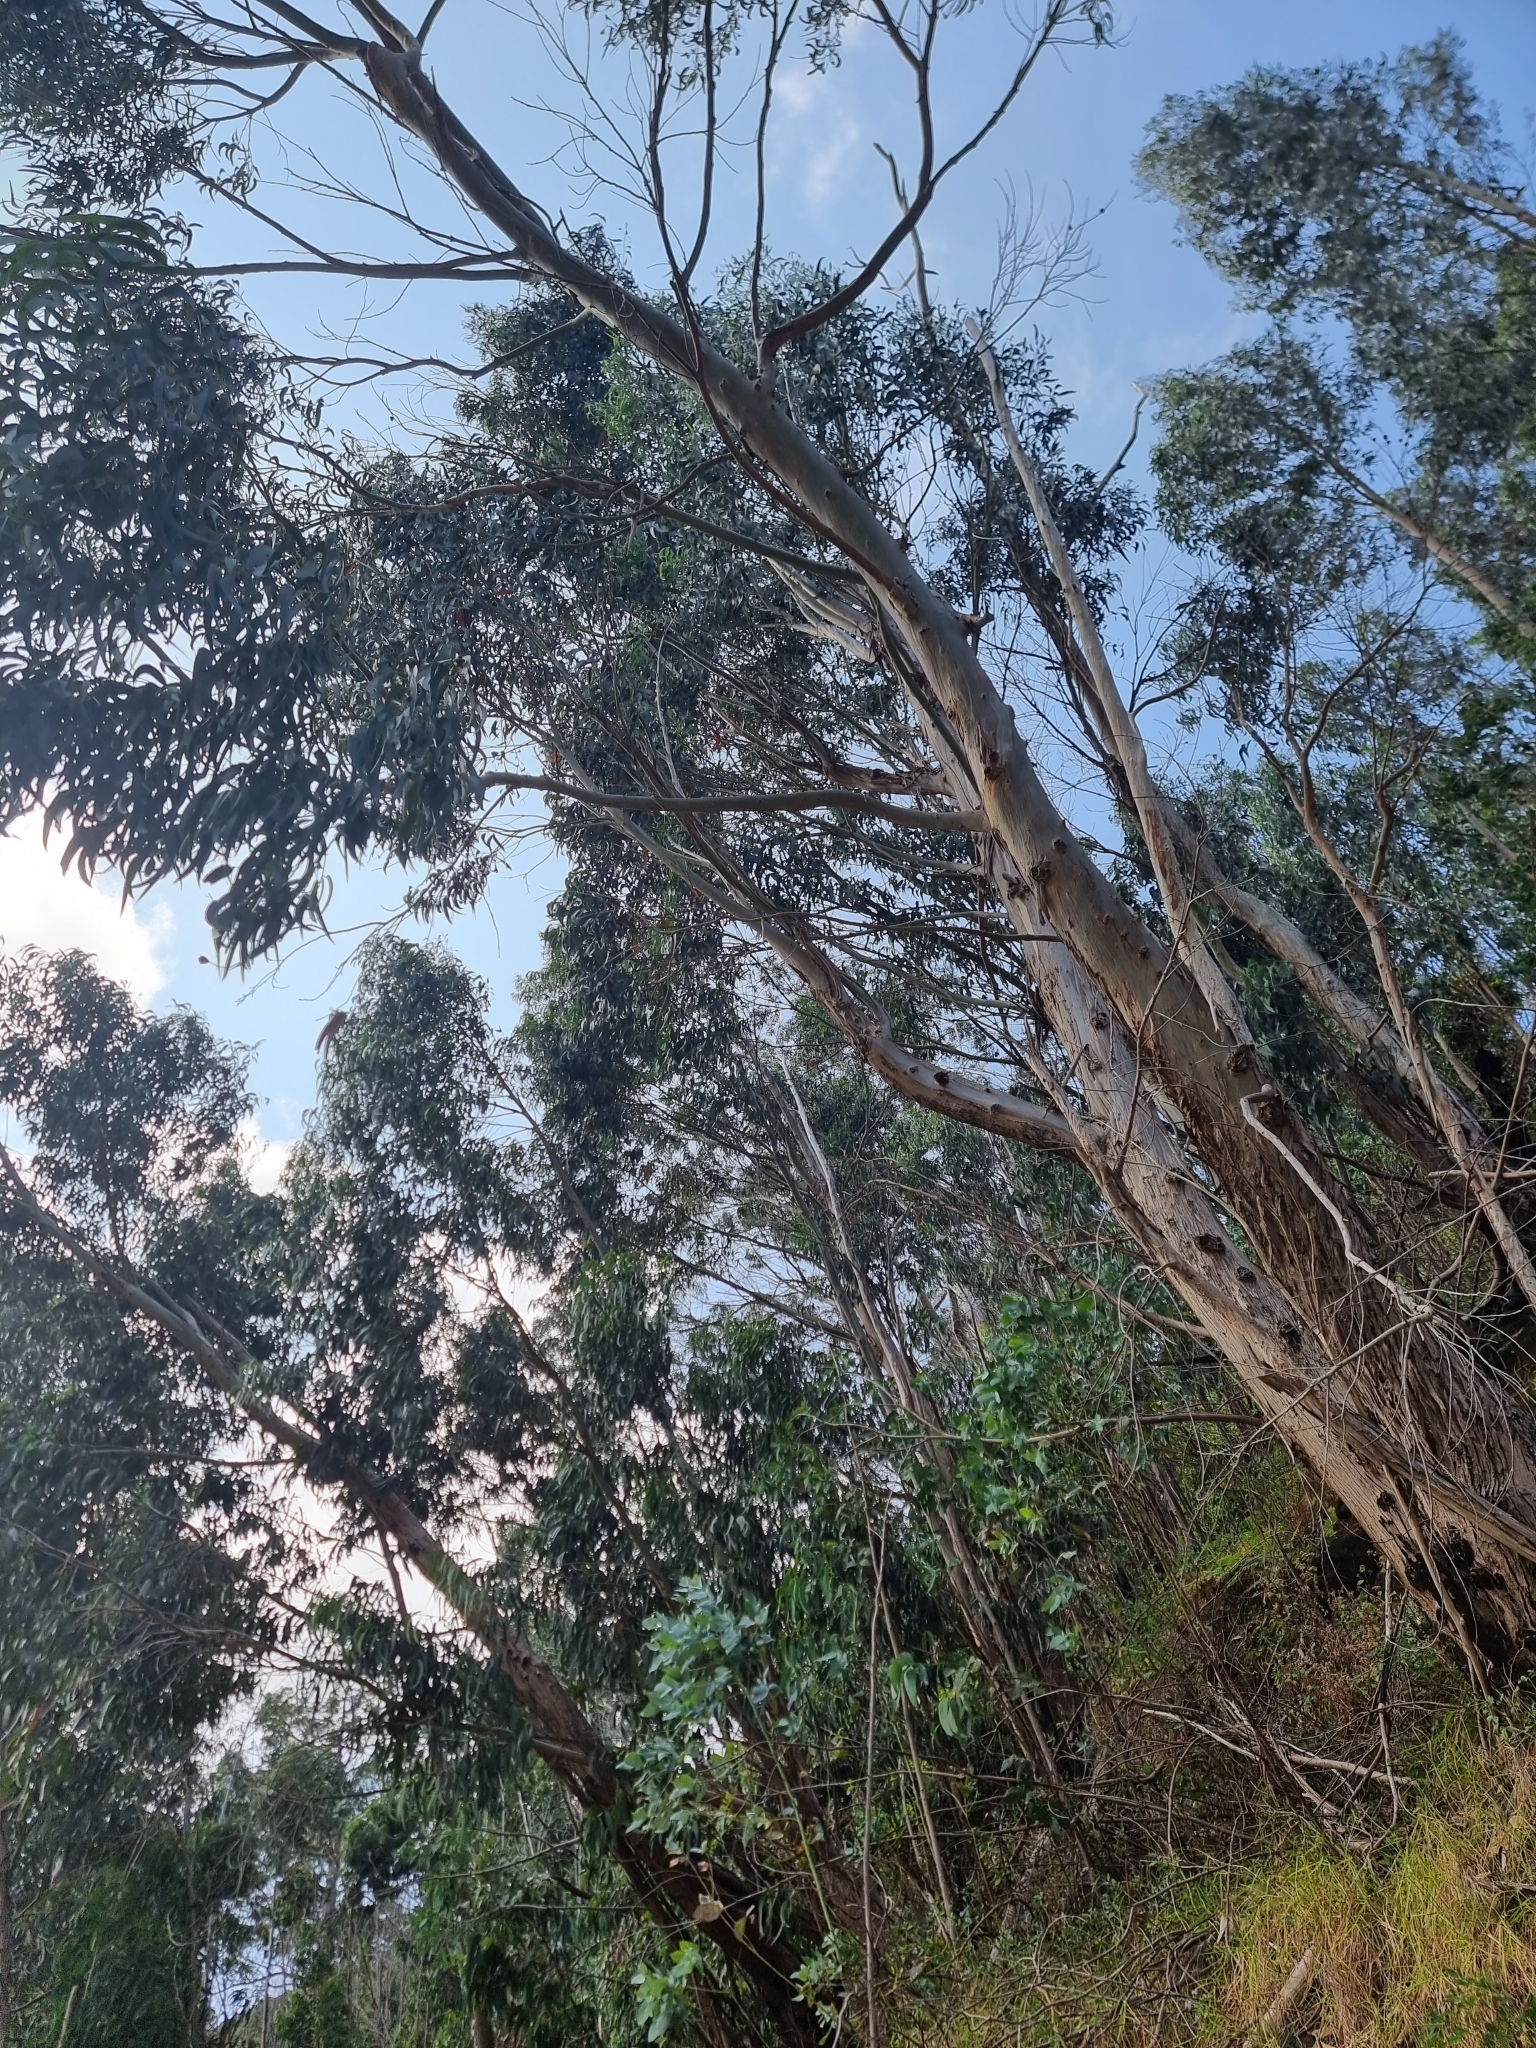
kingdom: Plantae
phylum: Tracheophyta
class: Magnoliopsida
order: Myrtales
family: Myrtaceae
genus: Eucalyptus
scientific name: Eucalyptus globulus
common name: Southern blue-gum
